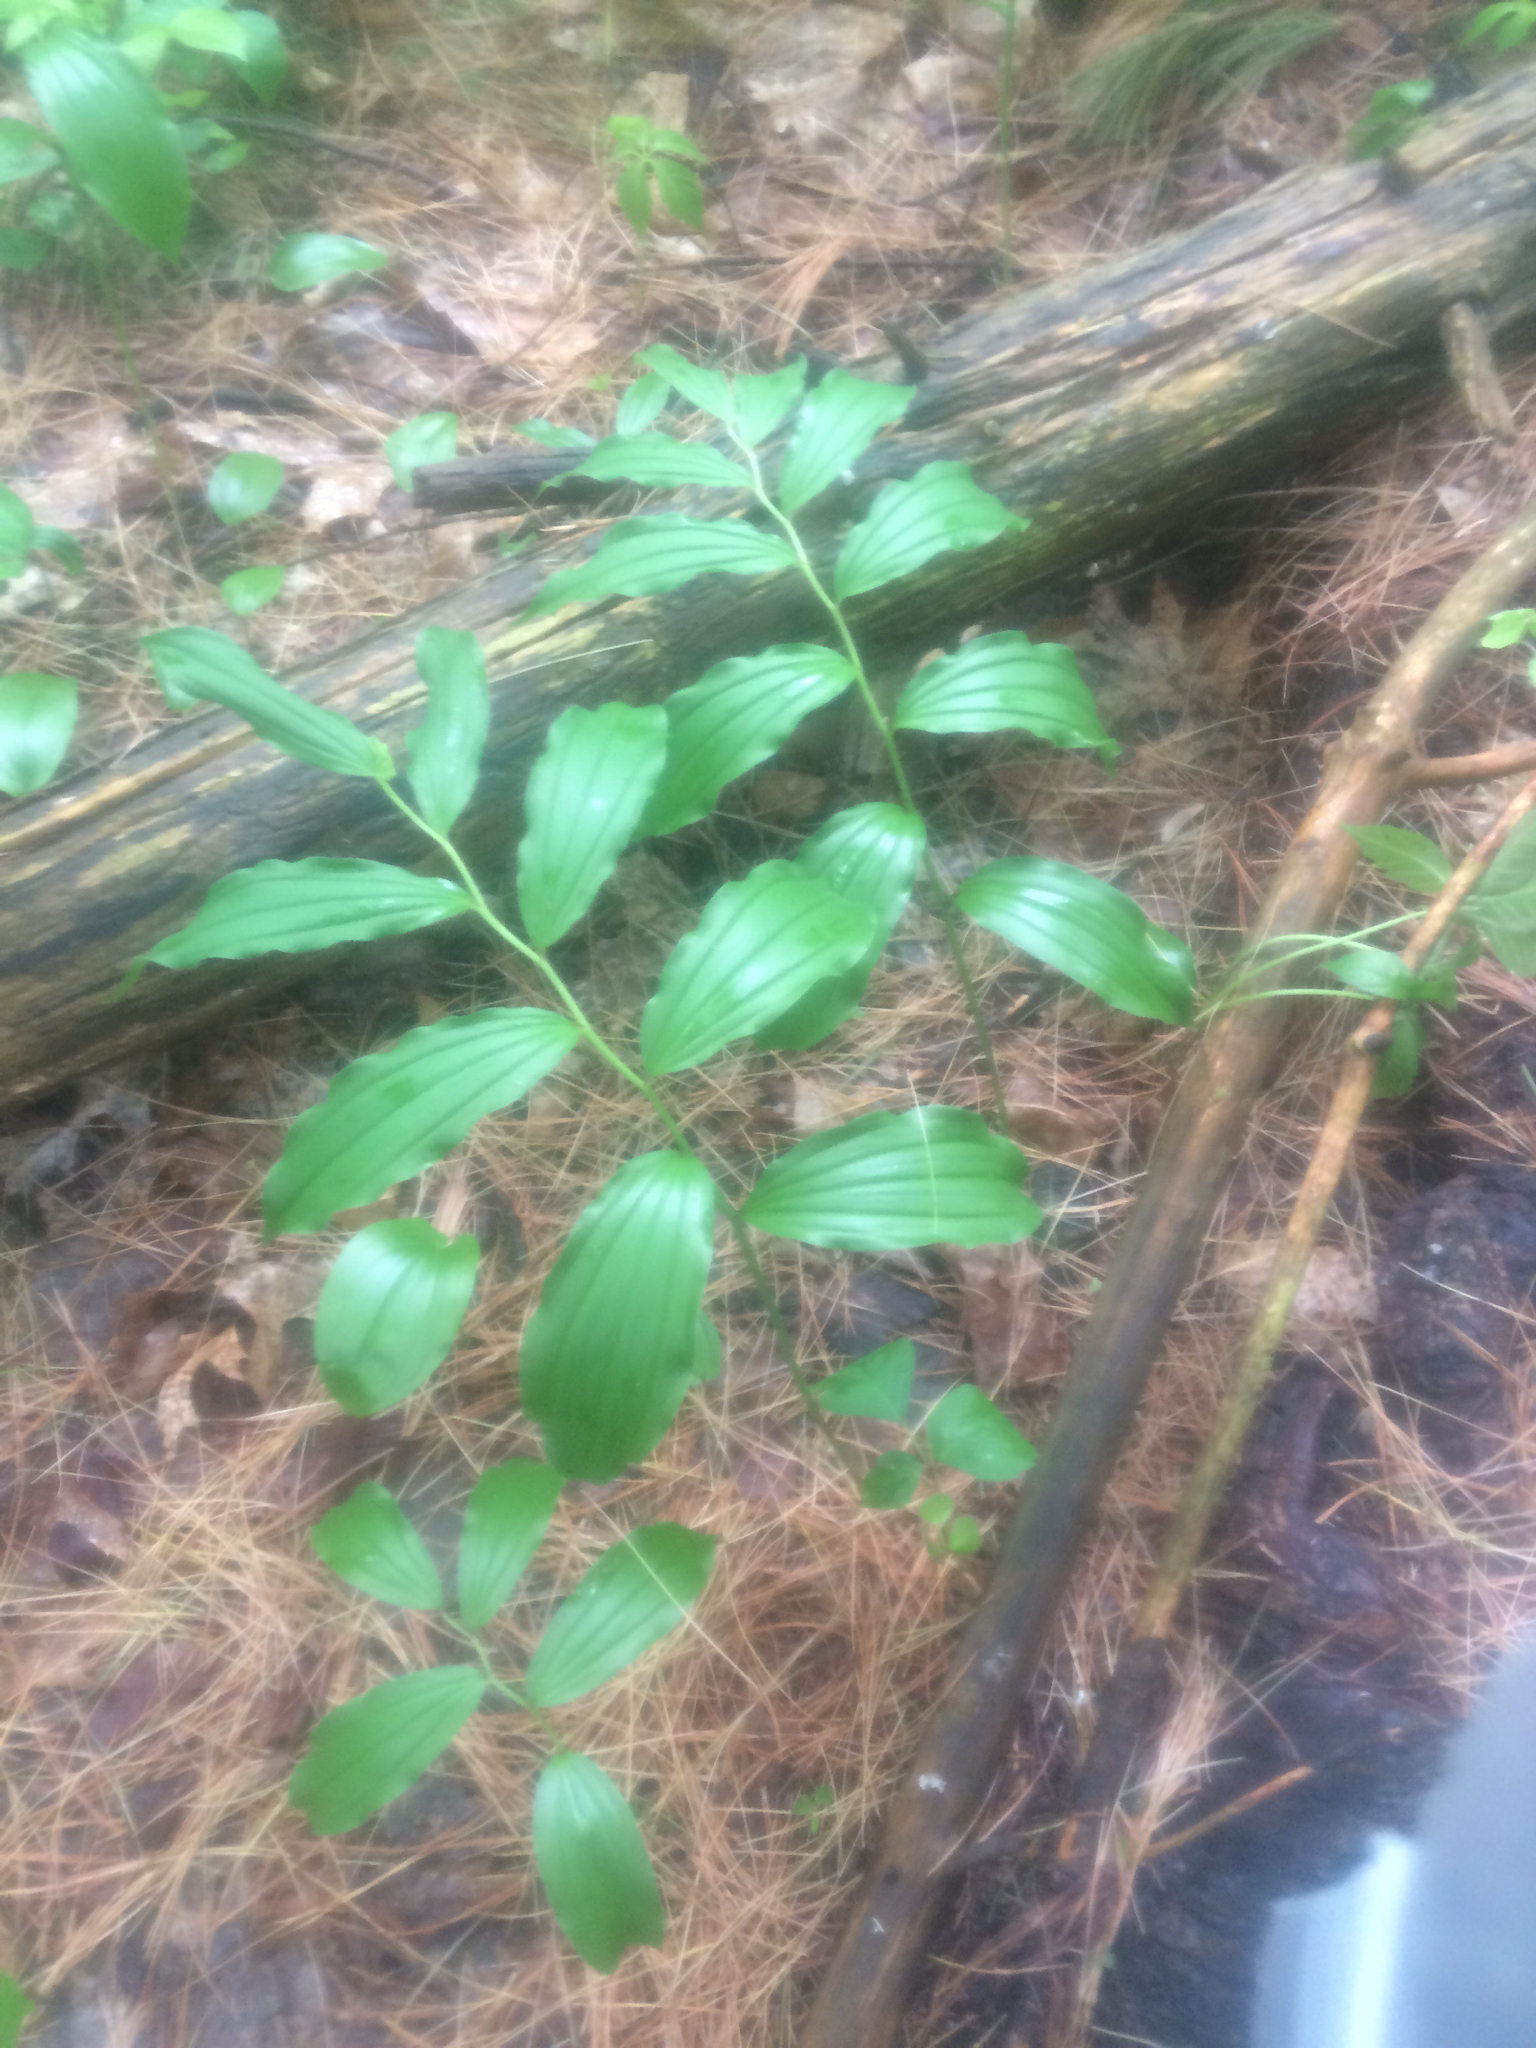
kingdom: Plantae
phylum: Tracheophyta
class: Liliopsida
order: Asparagales
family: Asparagaceae
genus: Maianthemum
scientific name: Maianthemum racemosum
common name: False spikenard
